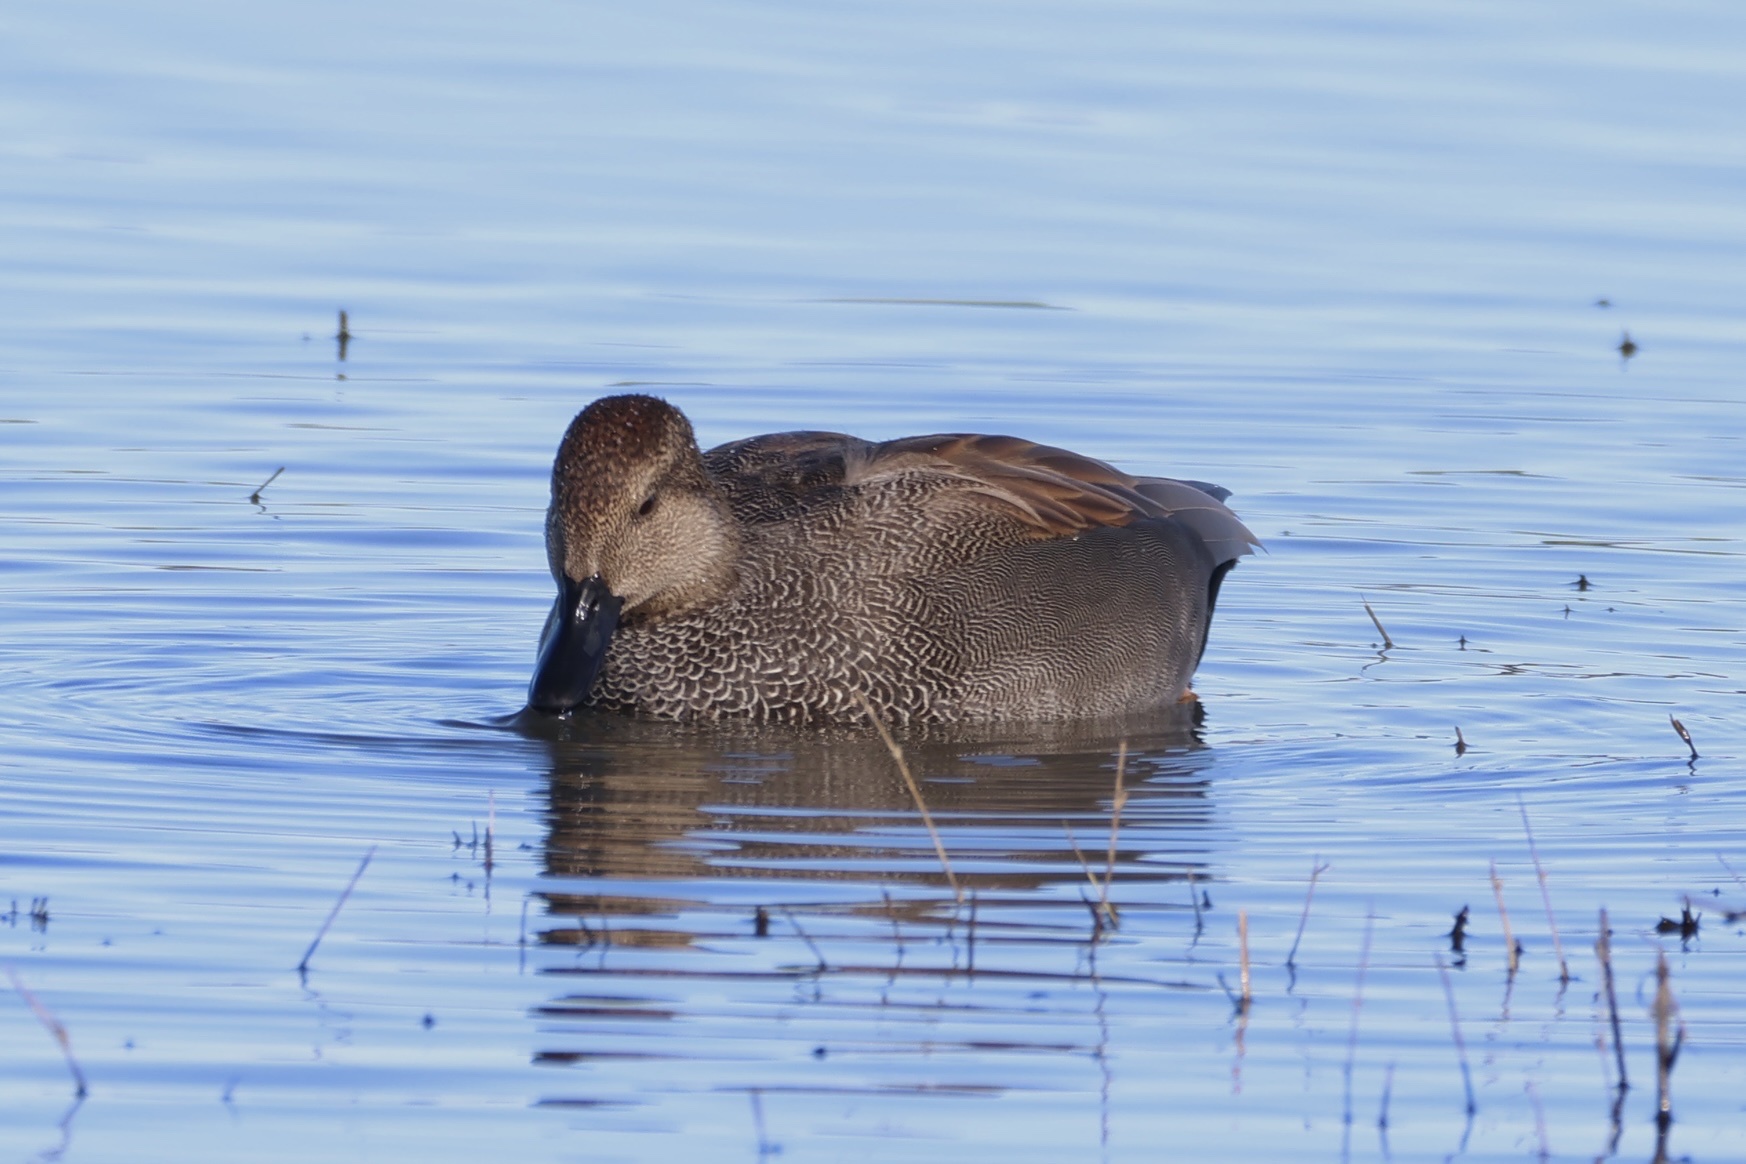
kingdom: Animalia
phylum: Chordata
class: Aves
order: Anseriformes
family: Anatidae
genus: Mareca
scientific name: Mareca strepera
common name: Gadwall
